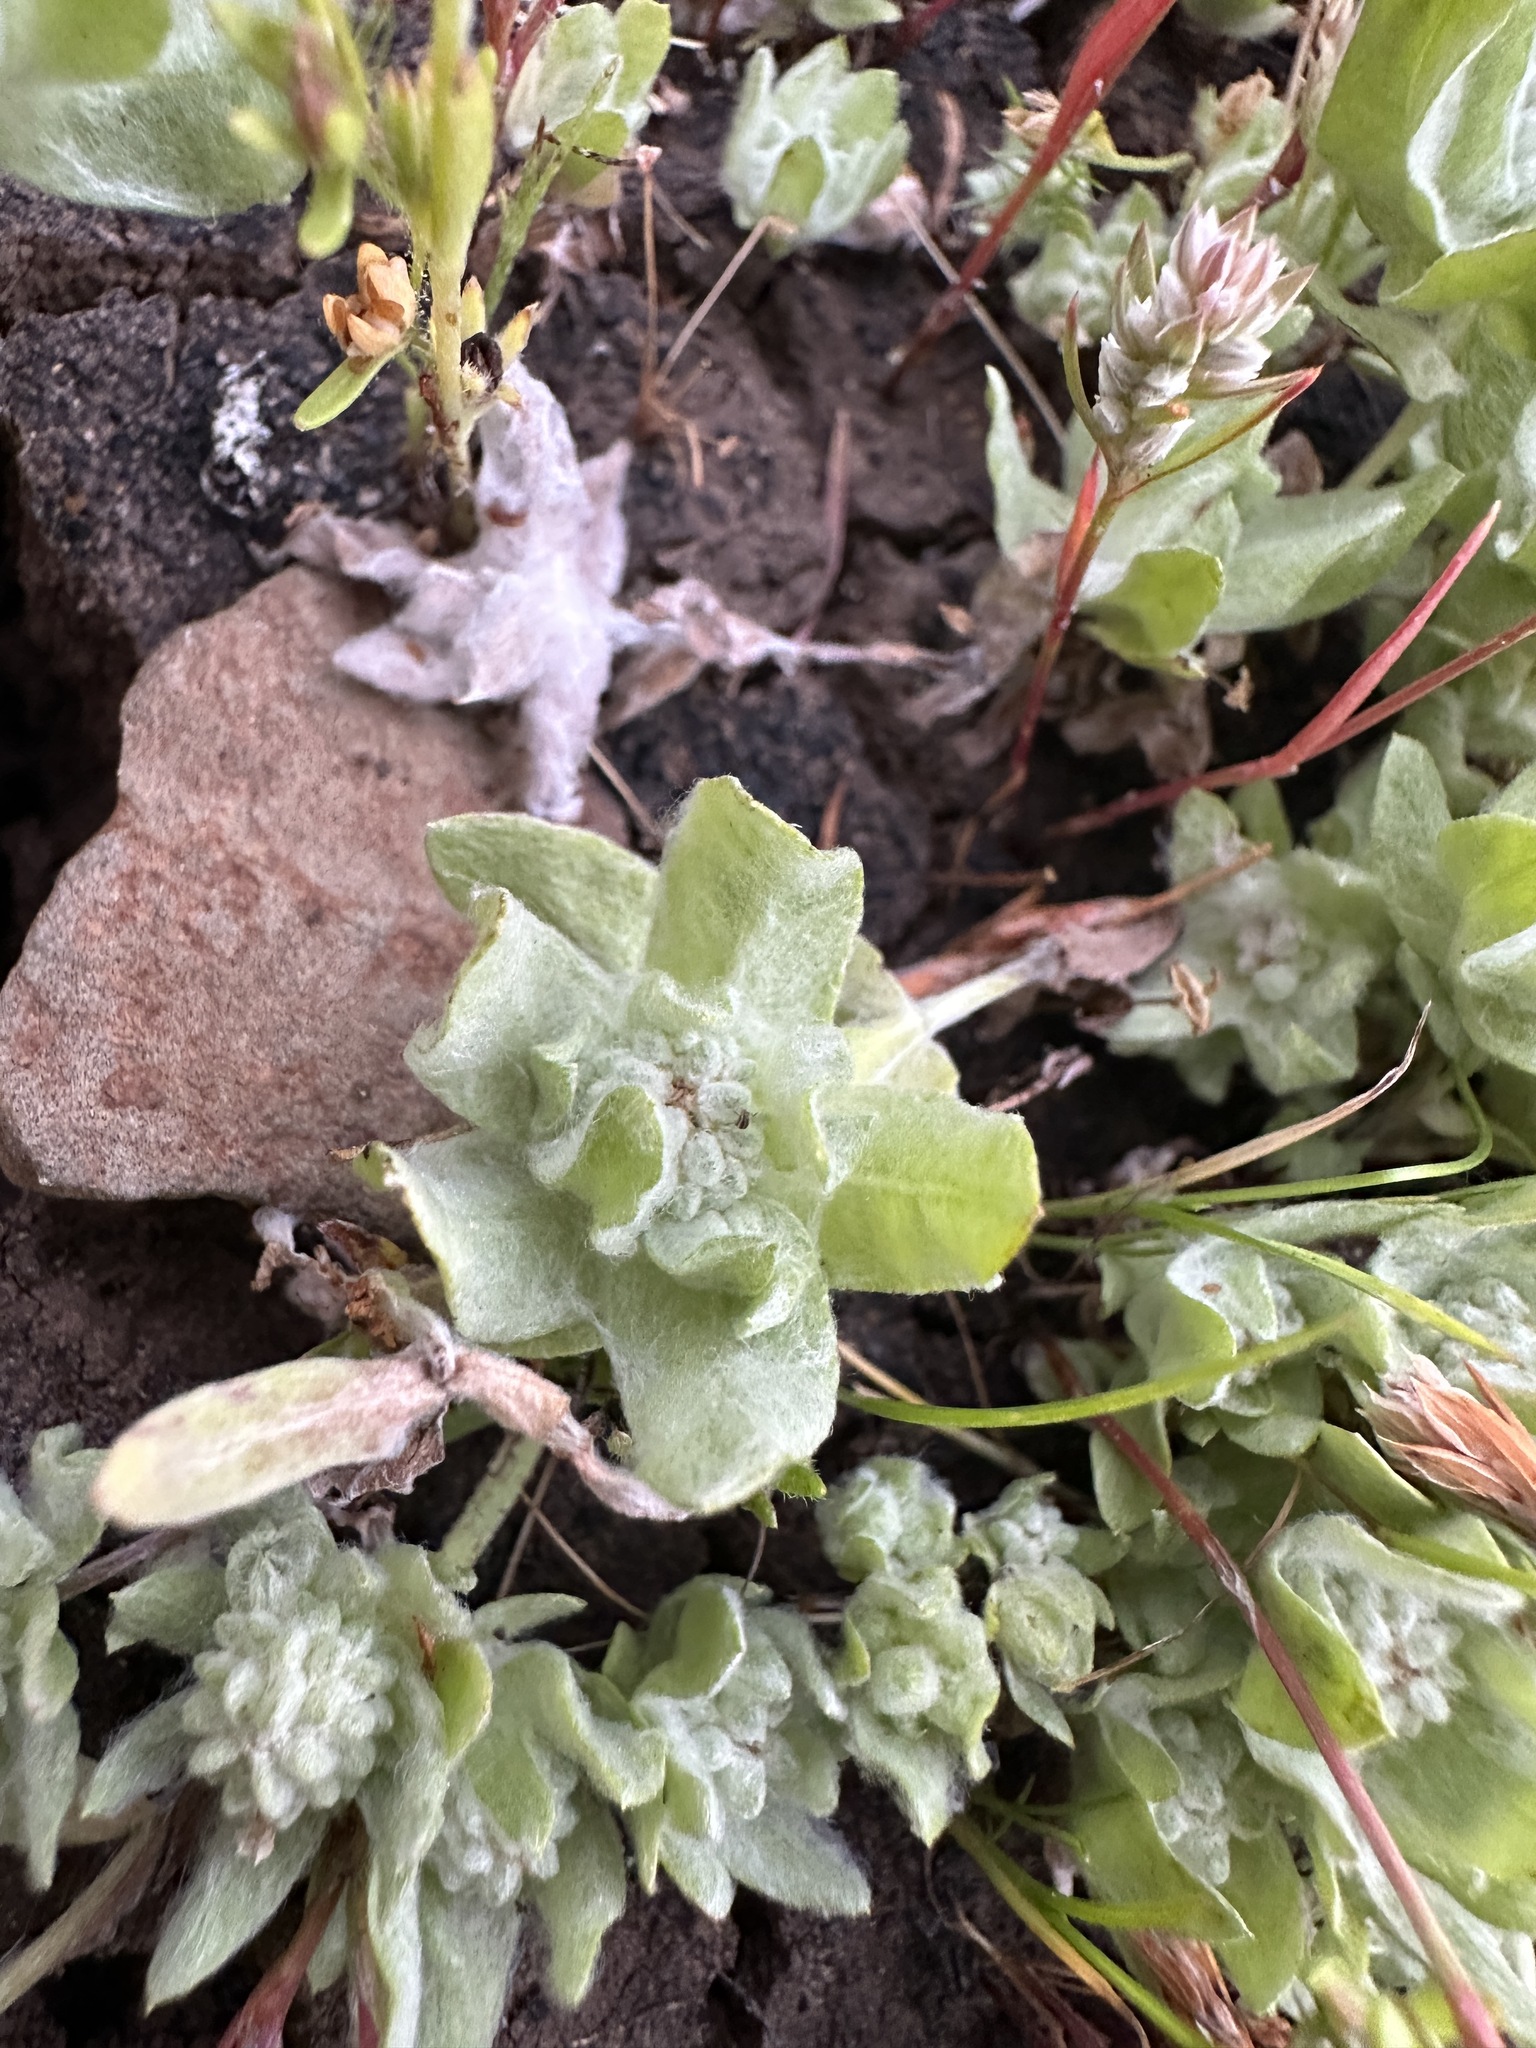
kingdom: Plantae
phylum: Tracheophyta
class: Magnoliopsida
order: Asterales
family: Asteraceae
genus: Psilocarphus
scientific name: Psilocarphus brevissimus
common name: Dwarf woollyheads
